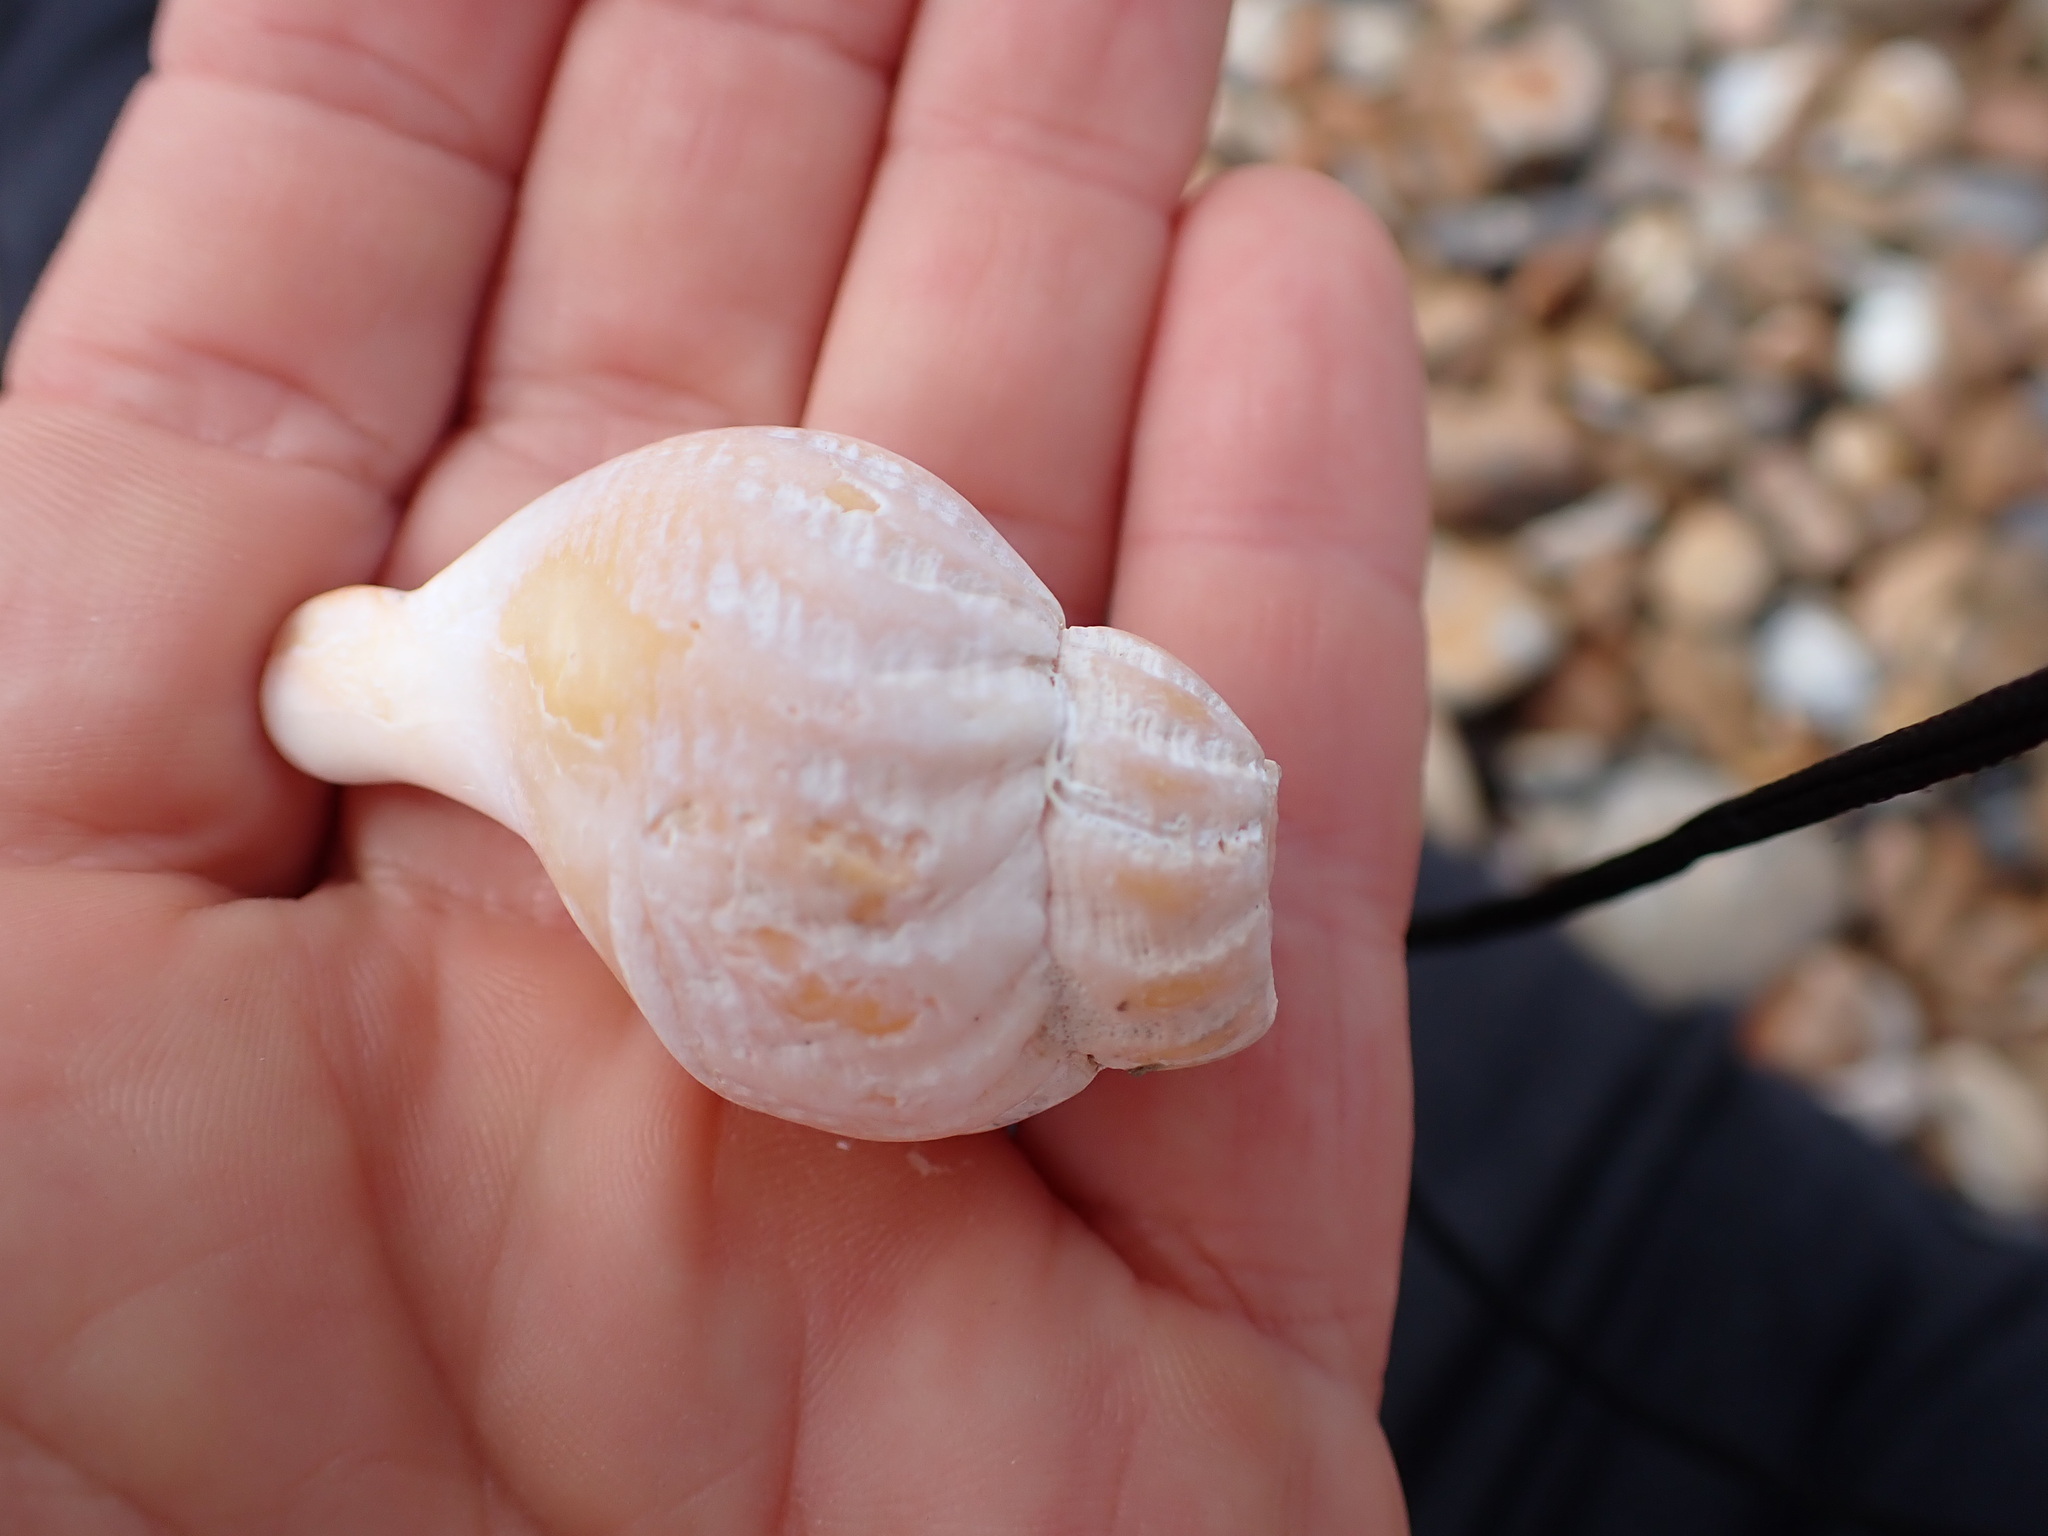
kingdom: Animalia
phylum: Mollusca
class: Gastropoda
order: Neogastropoda
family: Buccinidae
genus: Buccinum
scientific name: Buccinum undatum
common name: Common whelk
